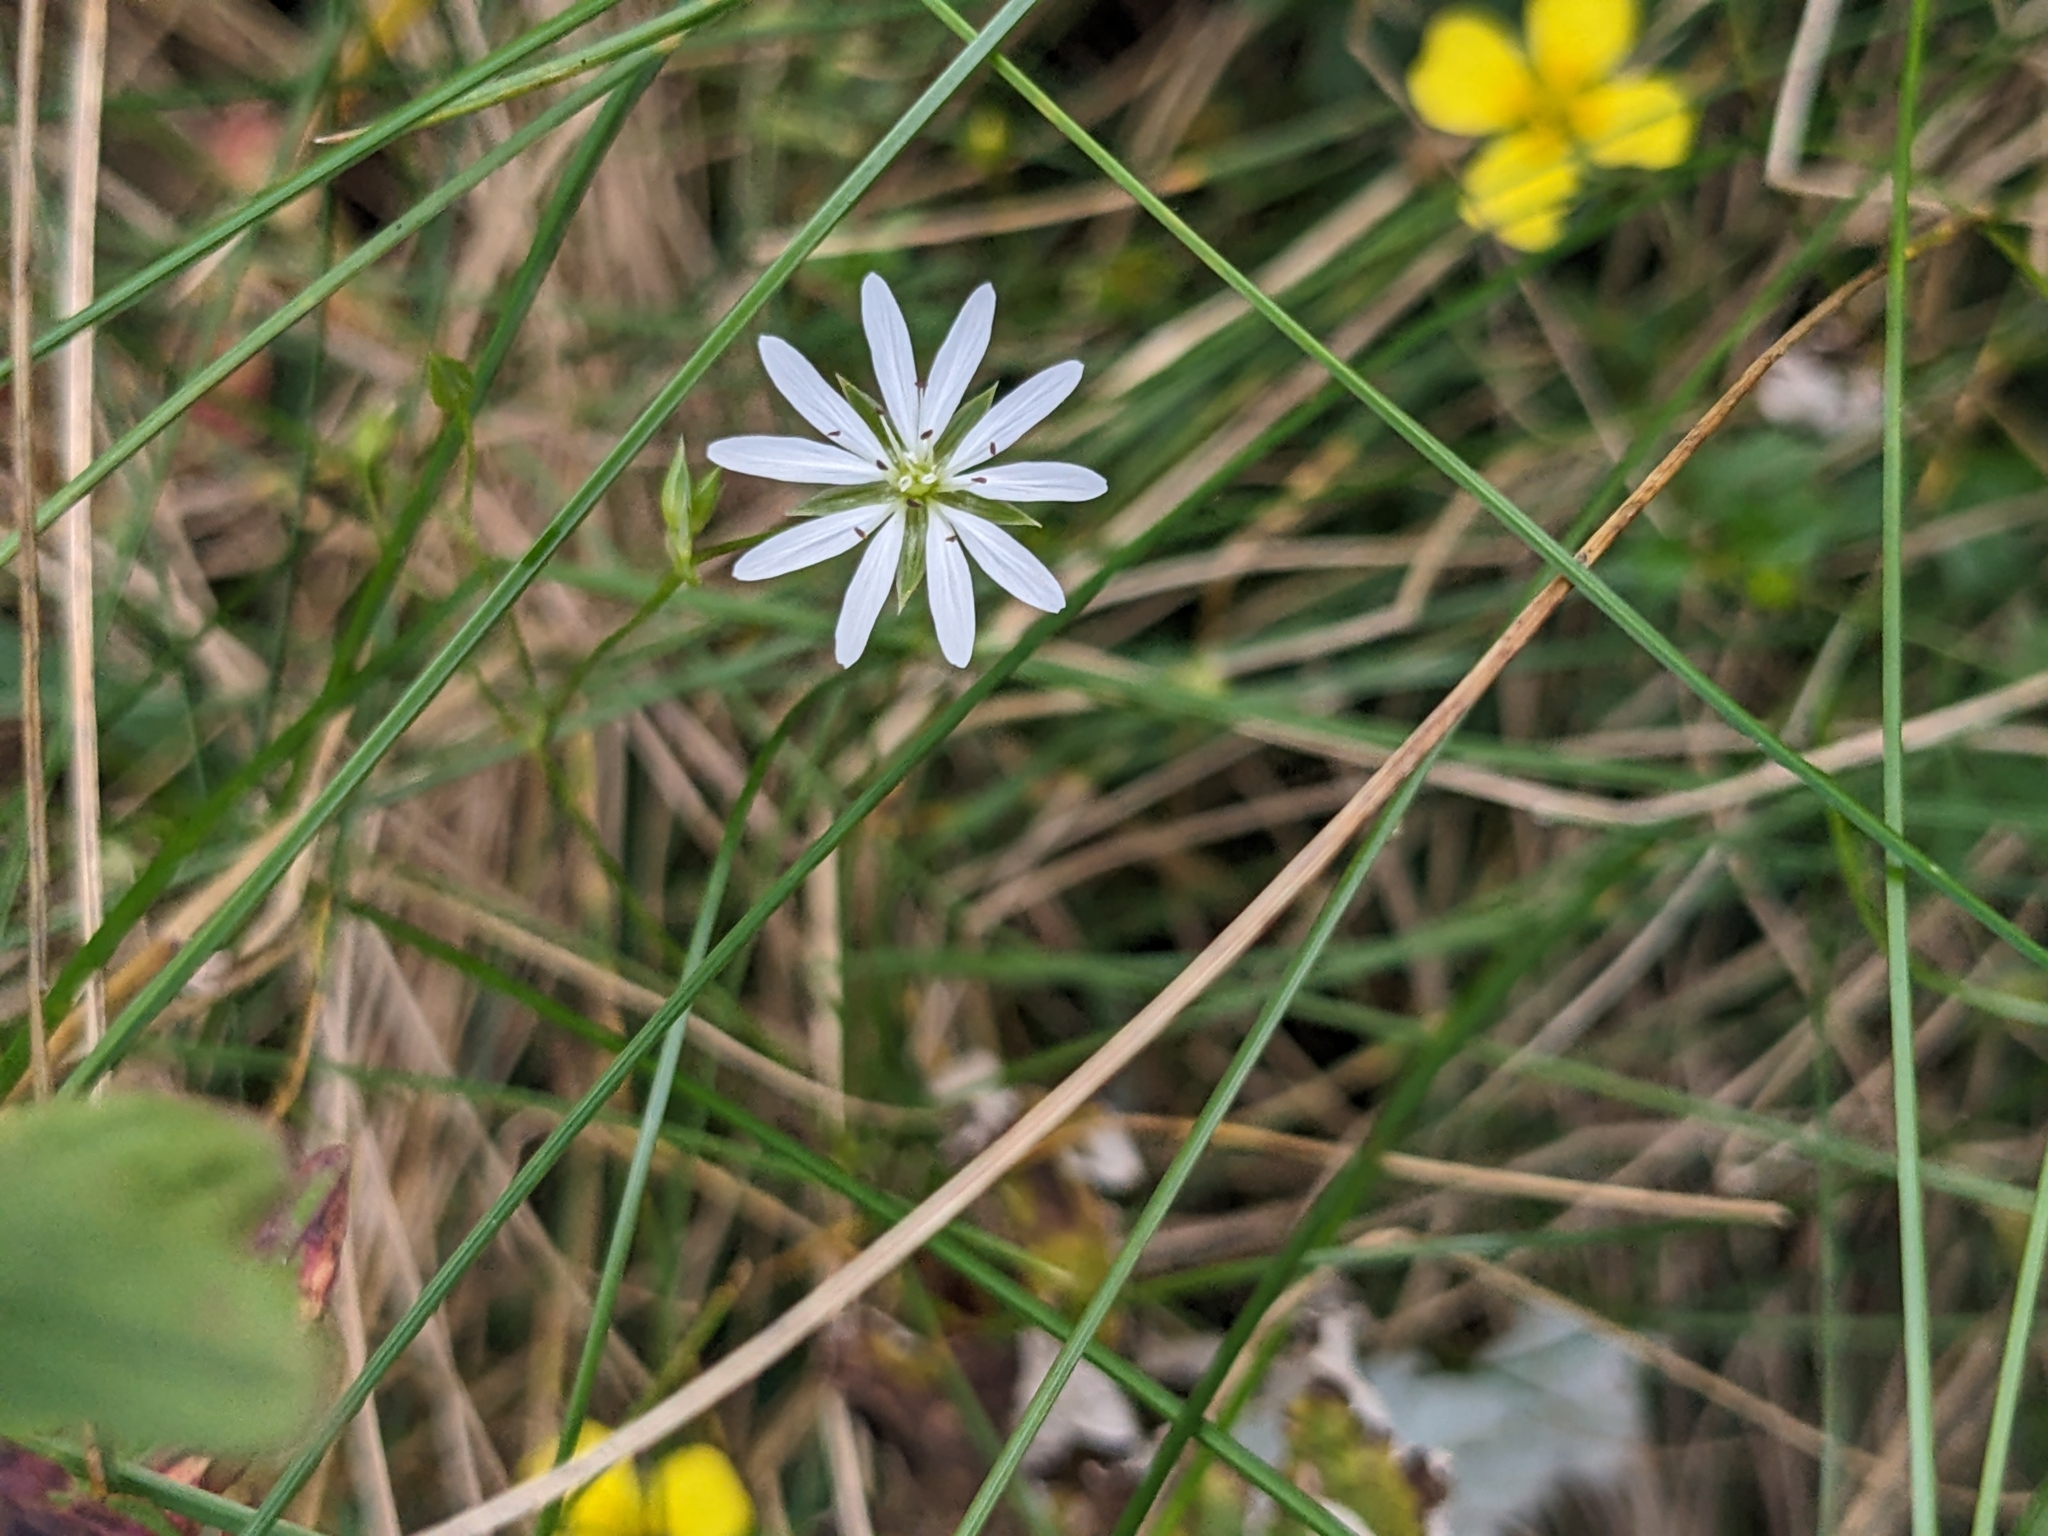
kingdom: Plantae
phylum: Tracheophyta
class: Magnoliopsida
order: Caryophyllales
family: Caryophyllaceae
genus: Stellaria
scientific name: Stellaria graminea
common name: Grass-like starwort
